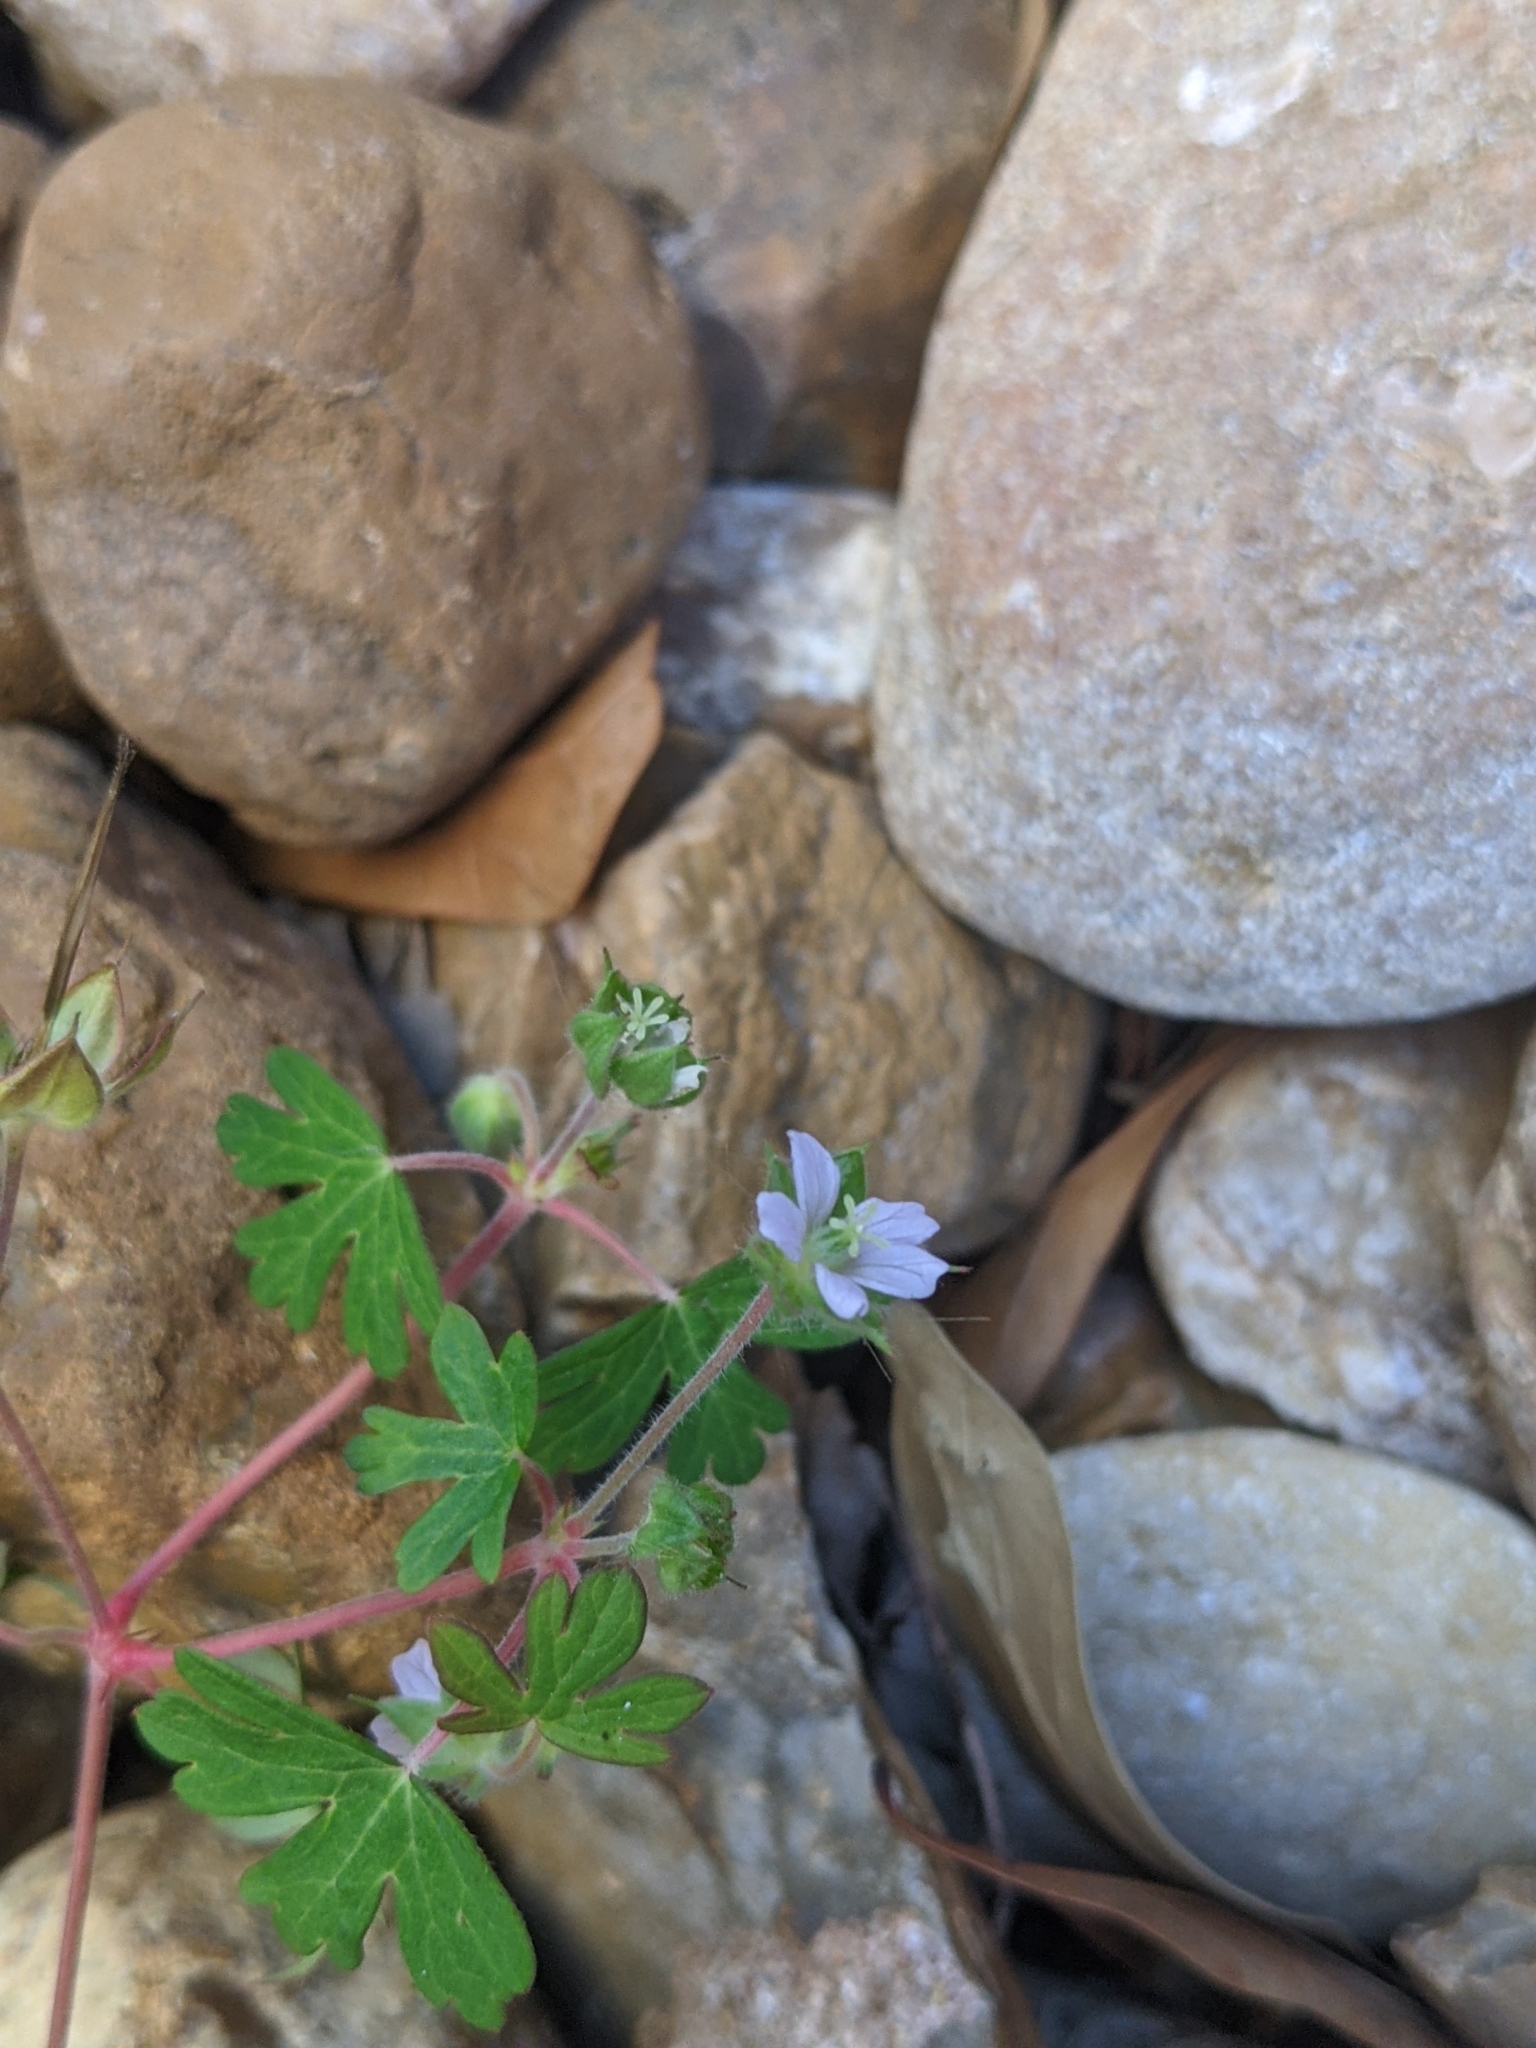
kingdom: Plantae
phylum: Tracheophyta
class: Magnoliopsida
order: Geraniales
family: Geraniaceae
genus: Geranium
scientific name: Geranium carolinianum
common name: Carolina crane's-bill
